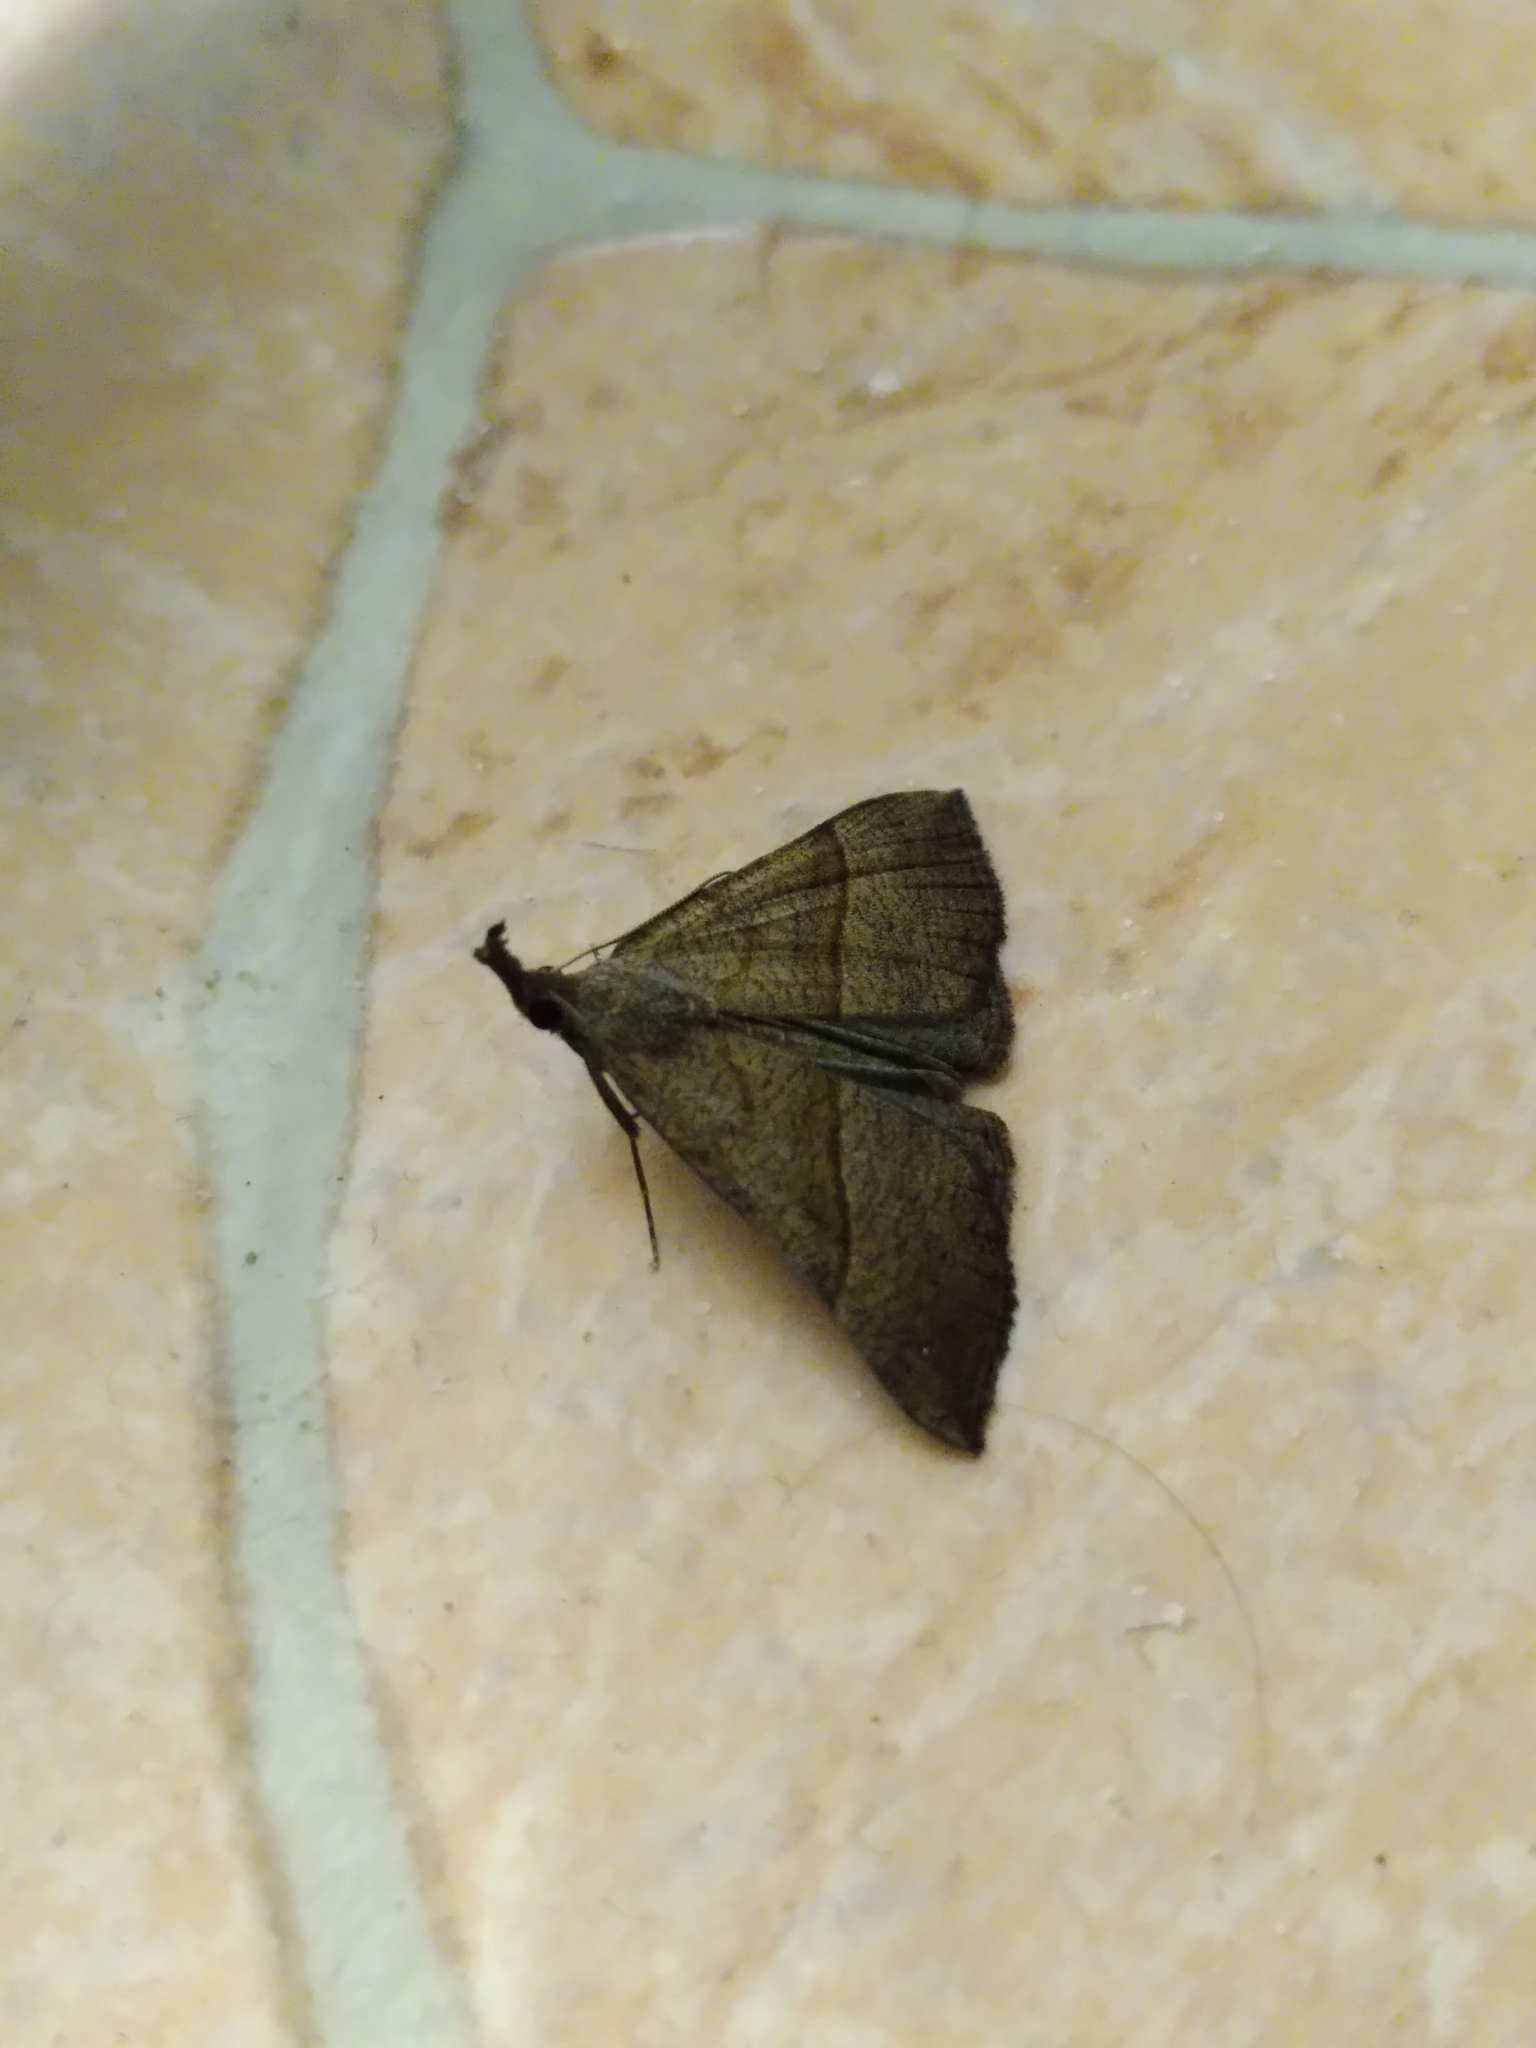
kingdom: Animalia
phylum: Arthropoda
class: Insecta
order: Lepidoptera
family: Erebidae
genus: Hypena
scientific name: Hypena proboscidalis
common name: Snout
